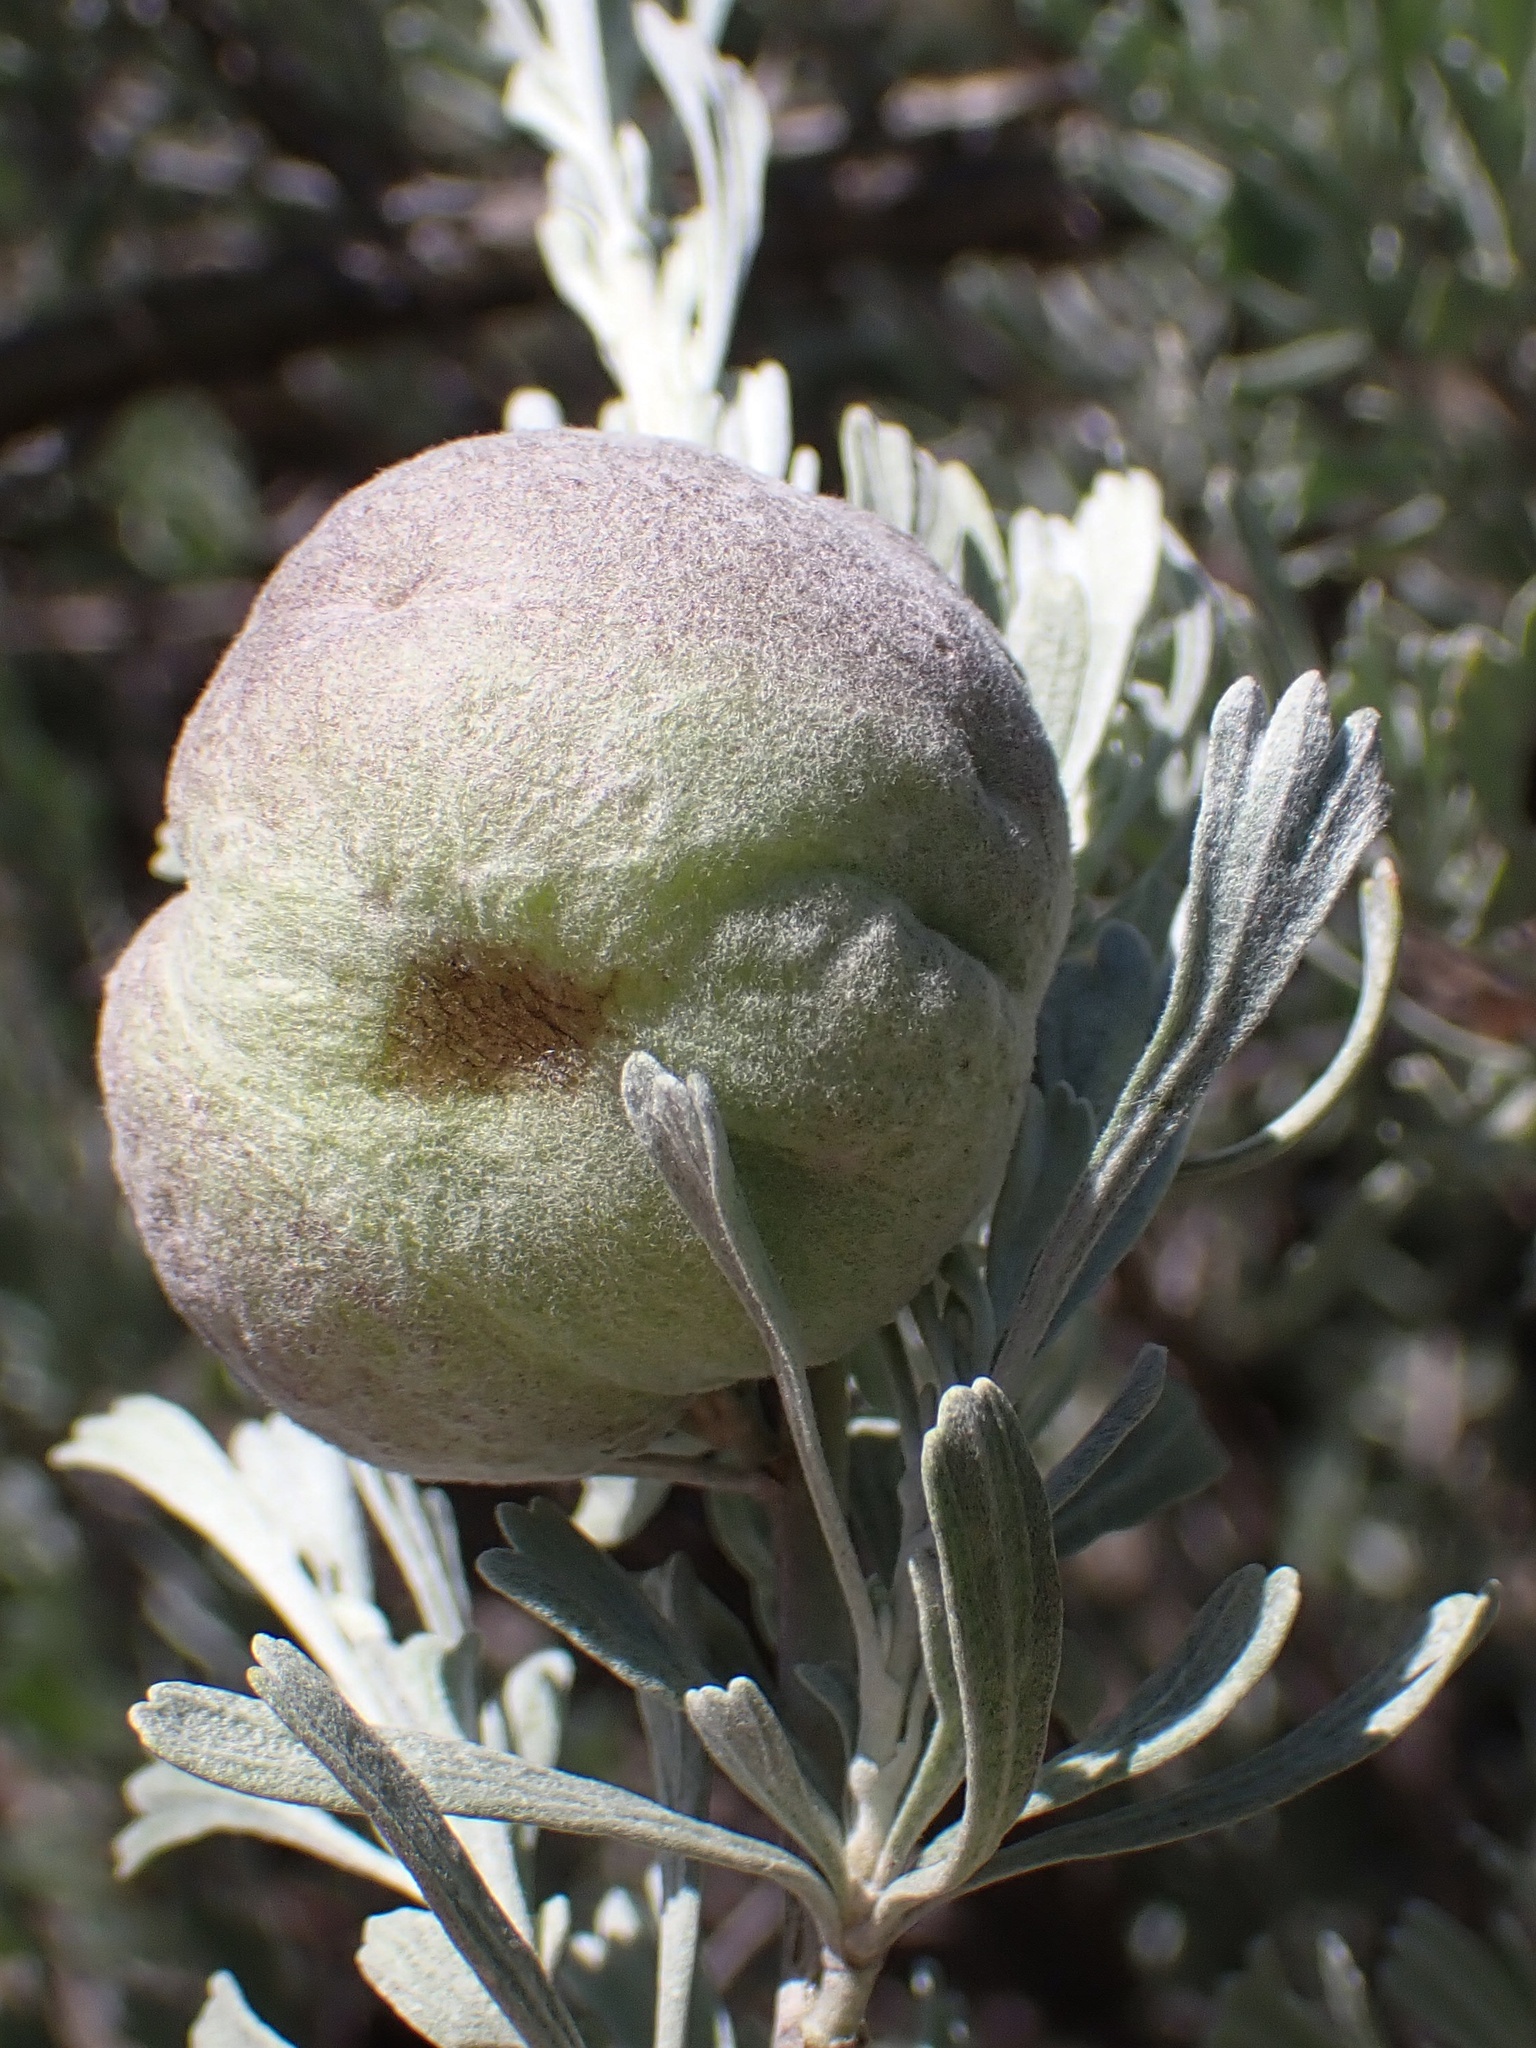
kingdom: Animalia
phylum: Arthropoda
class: Insecta
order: Diptera
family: Cecidomyiidae
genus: Rhopalomyia
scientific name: Rhopalomyia pomum
